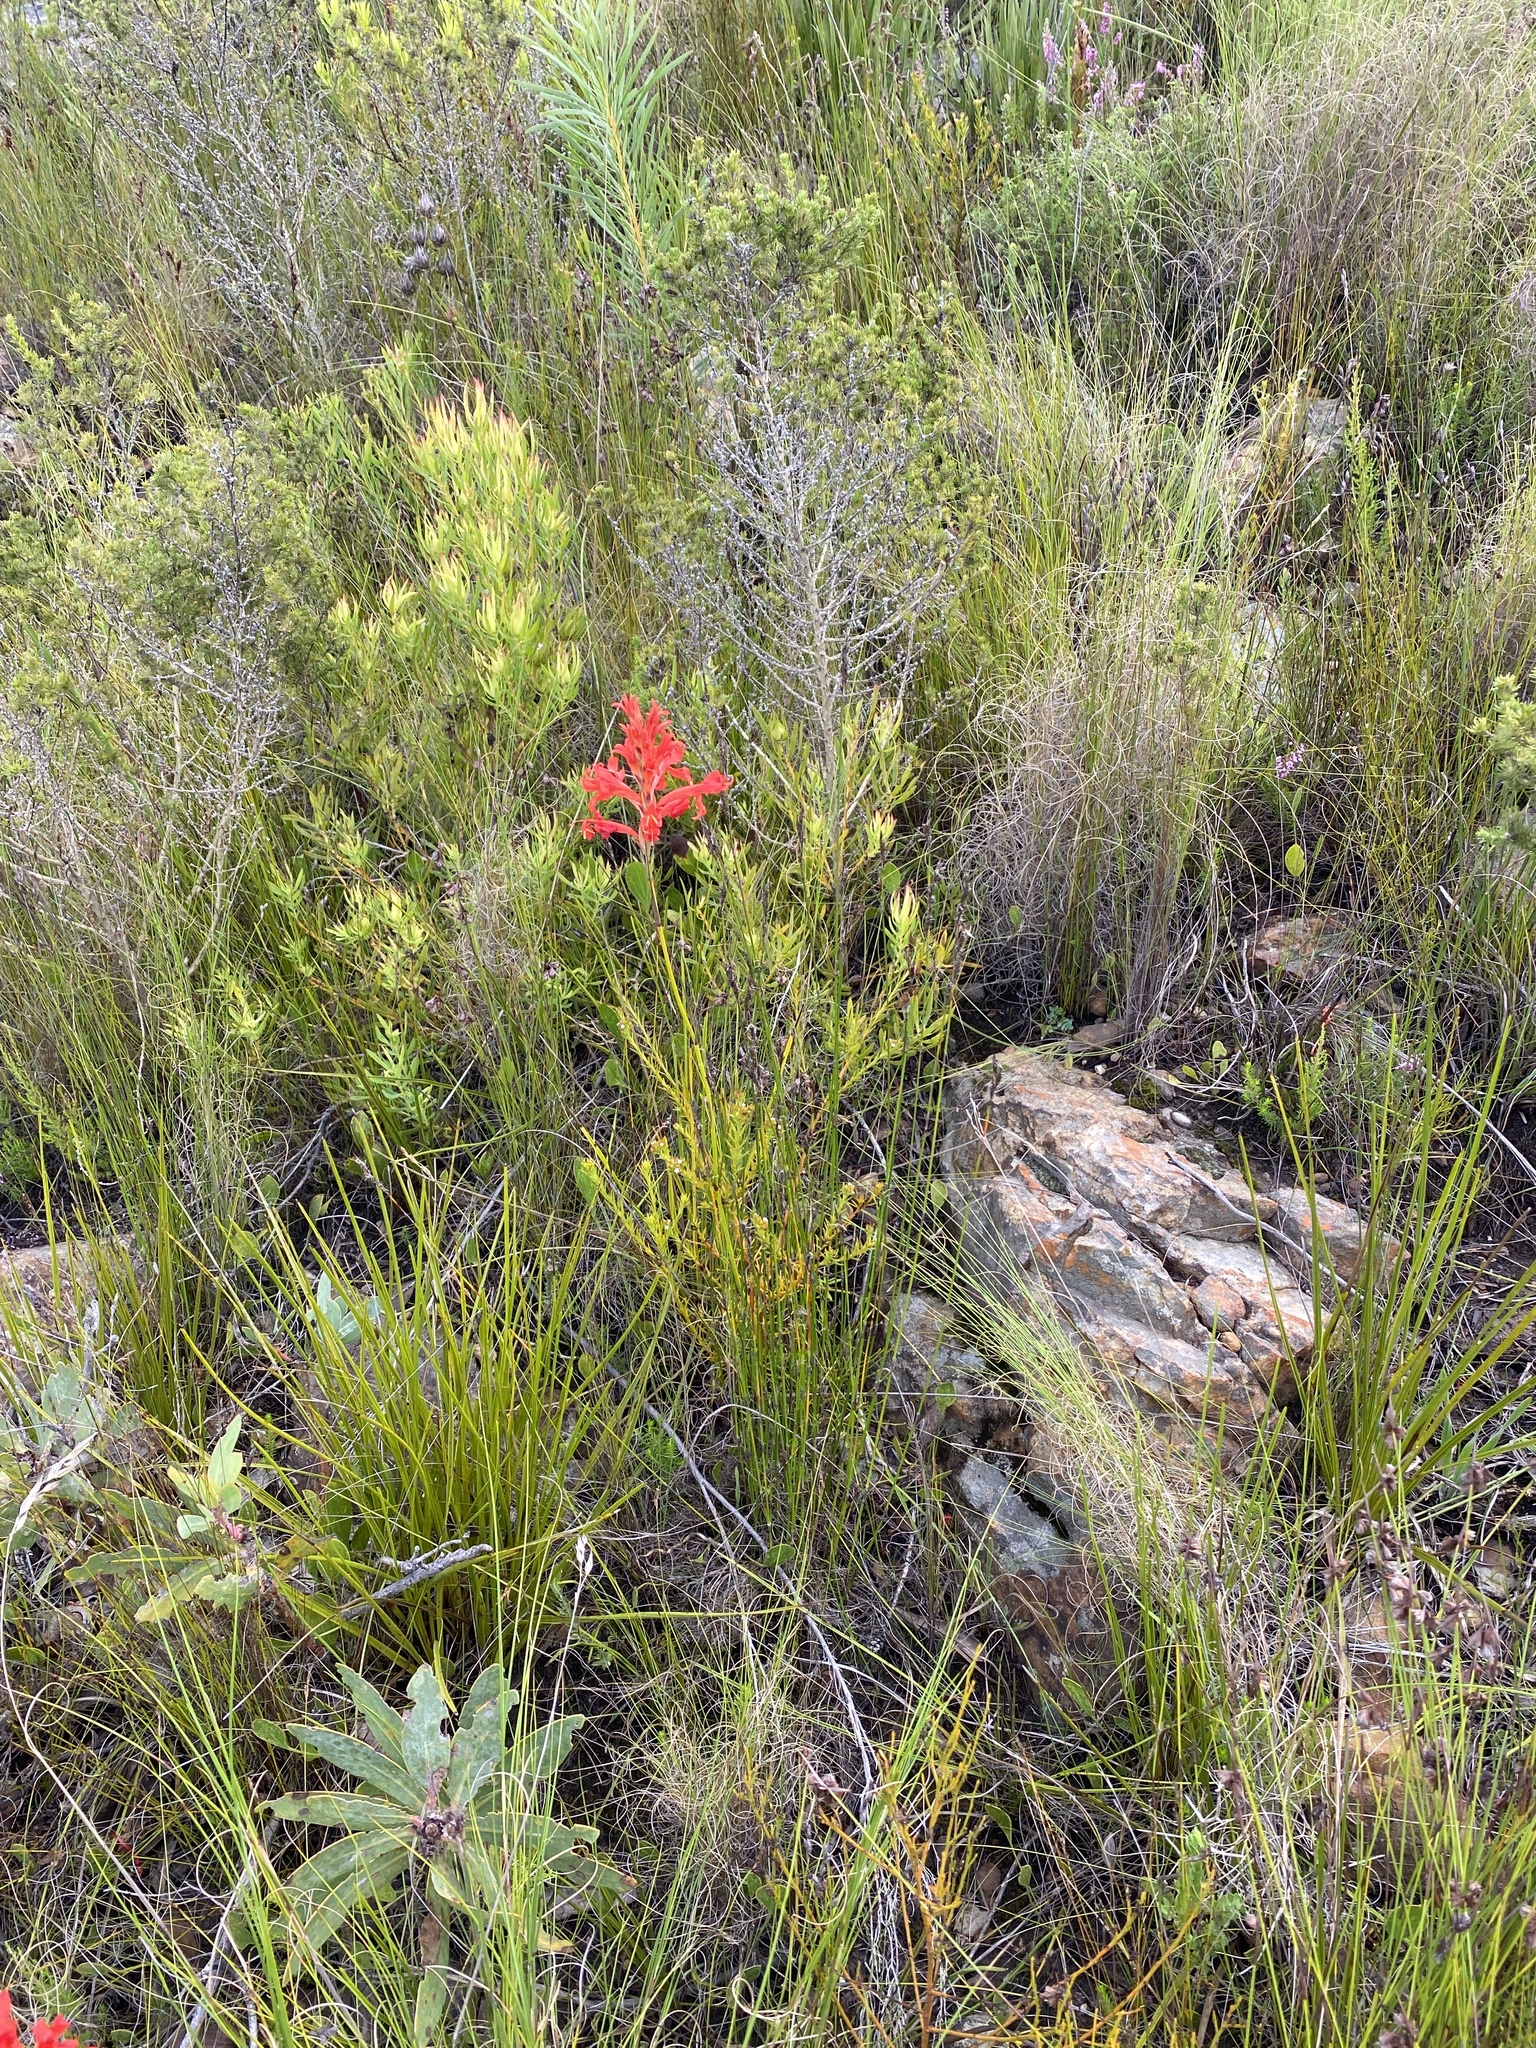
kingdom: Plantae
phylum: Tracheophyta
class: Liliopsida
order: Asparagales
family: Iridaceae
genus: Tritoniopsis
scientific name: Tritoniopsis triticea
